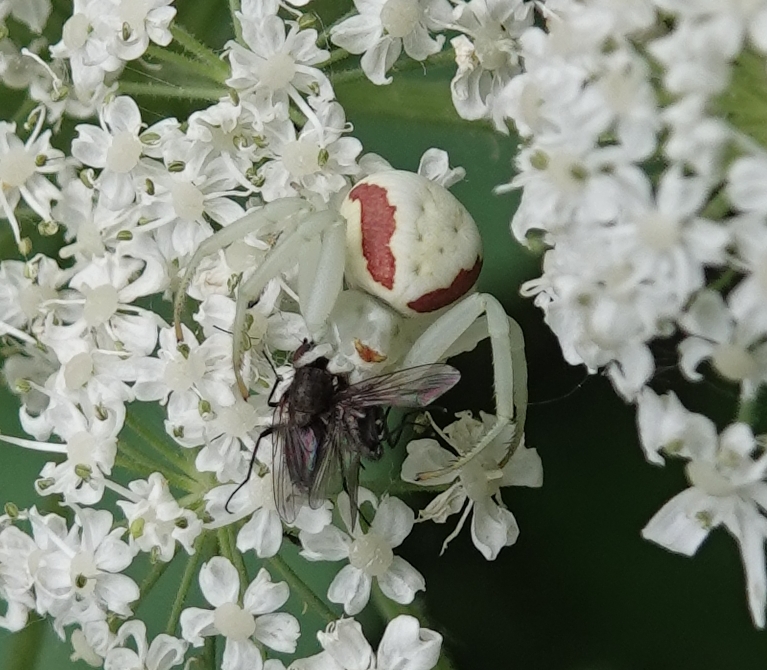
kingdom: Animalia
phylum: Arthropoda
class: Arachnida
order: Araneae
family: Thomisidae
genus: Misumena
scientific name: Misumena vatia
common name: Goldenrod crab spider
